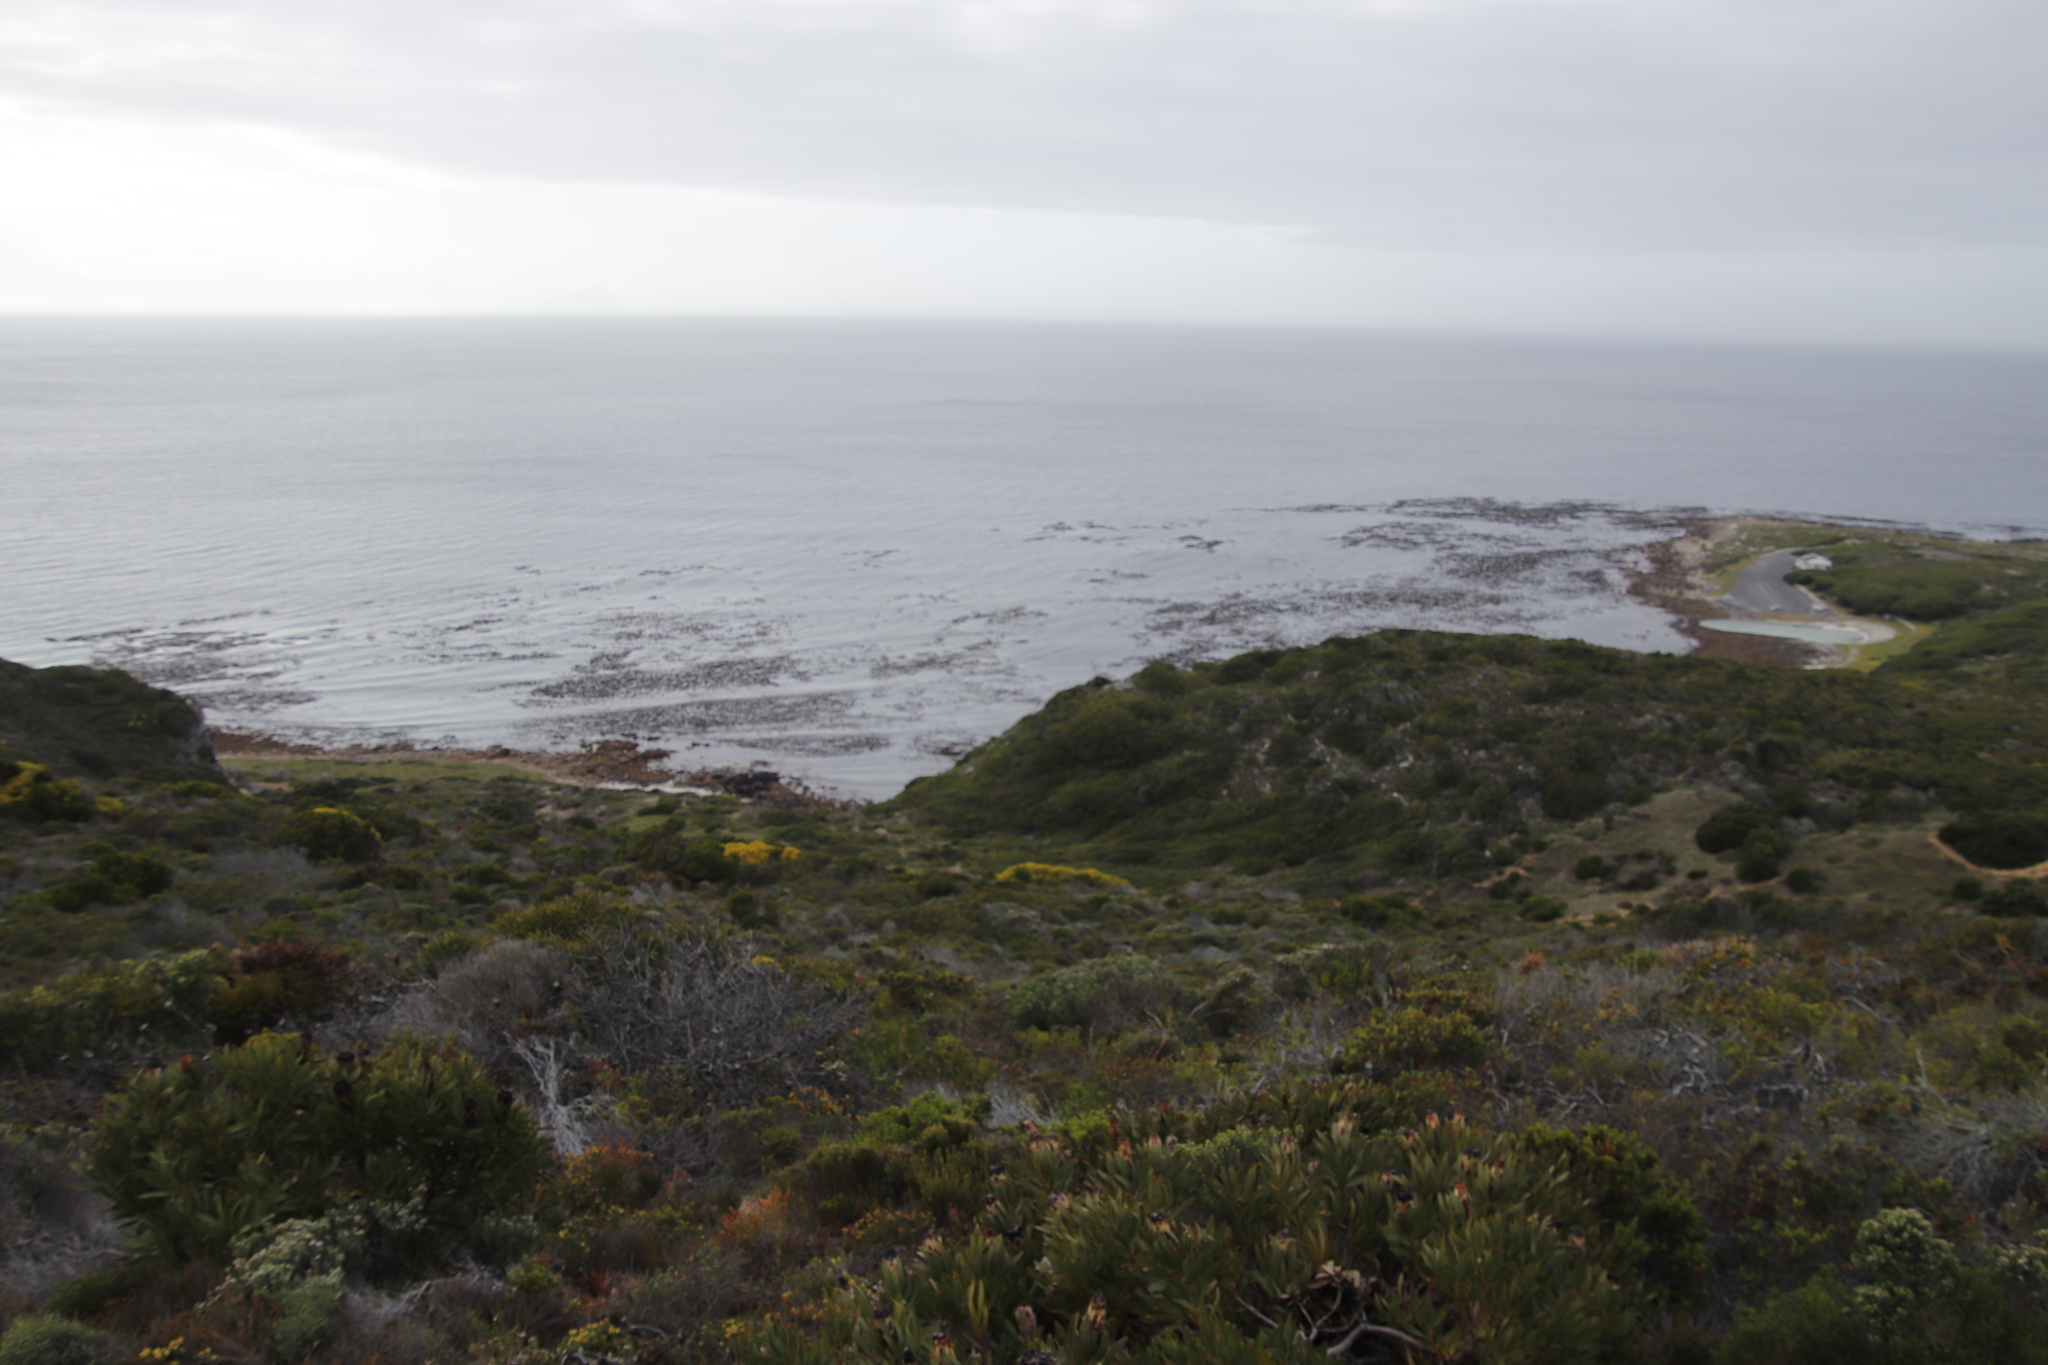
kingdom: Chromista
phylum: Ochrophyta
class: Phaeophyceae
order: Laminariales
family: Lessoniaceae
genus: Ecklonia
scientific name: Ecklonia
